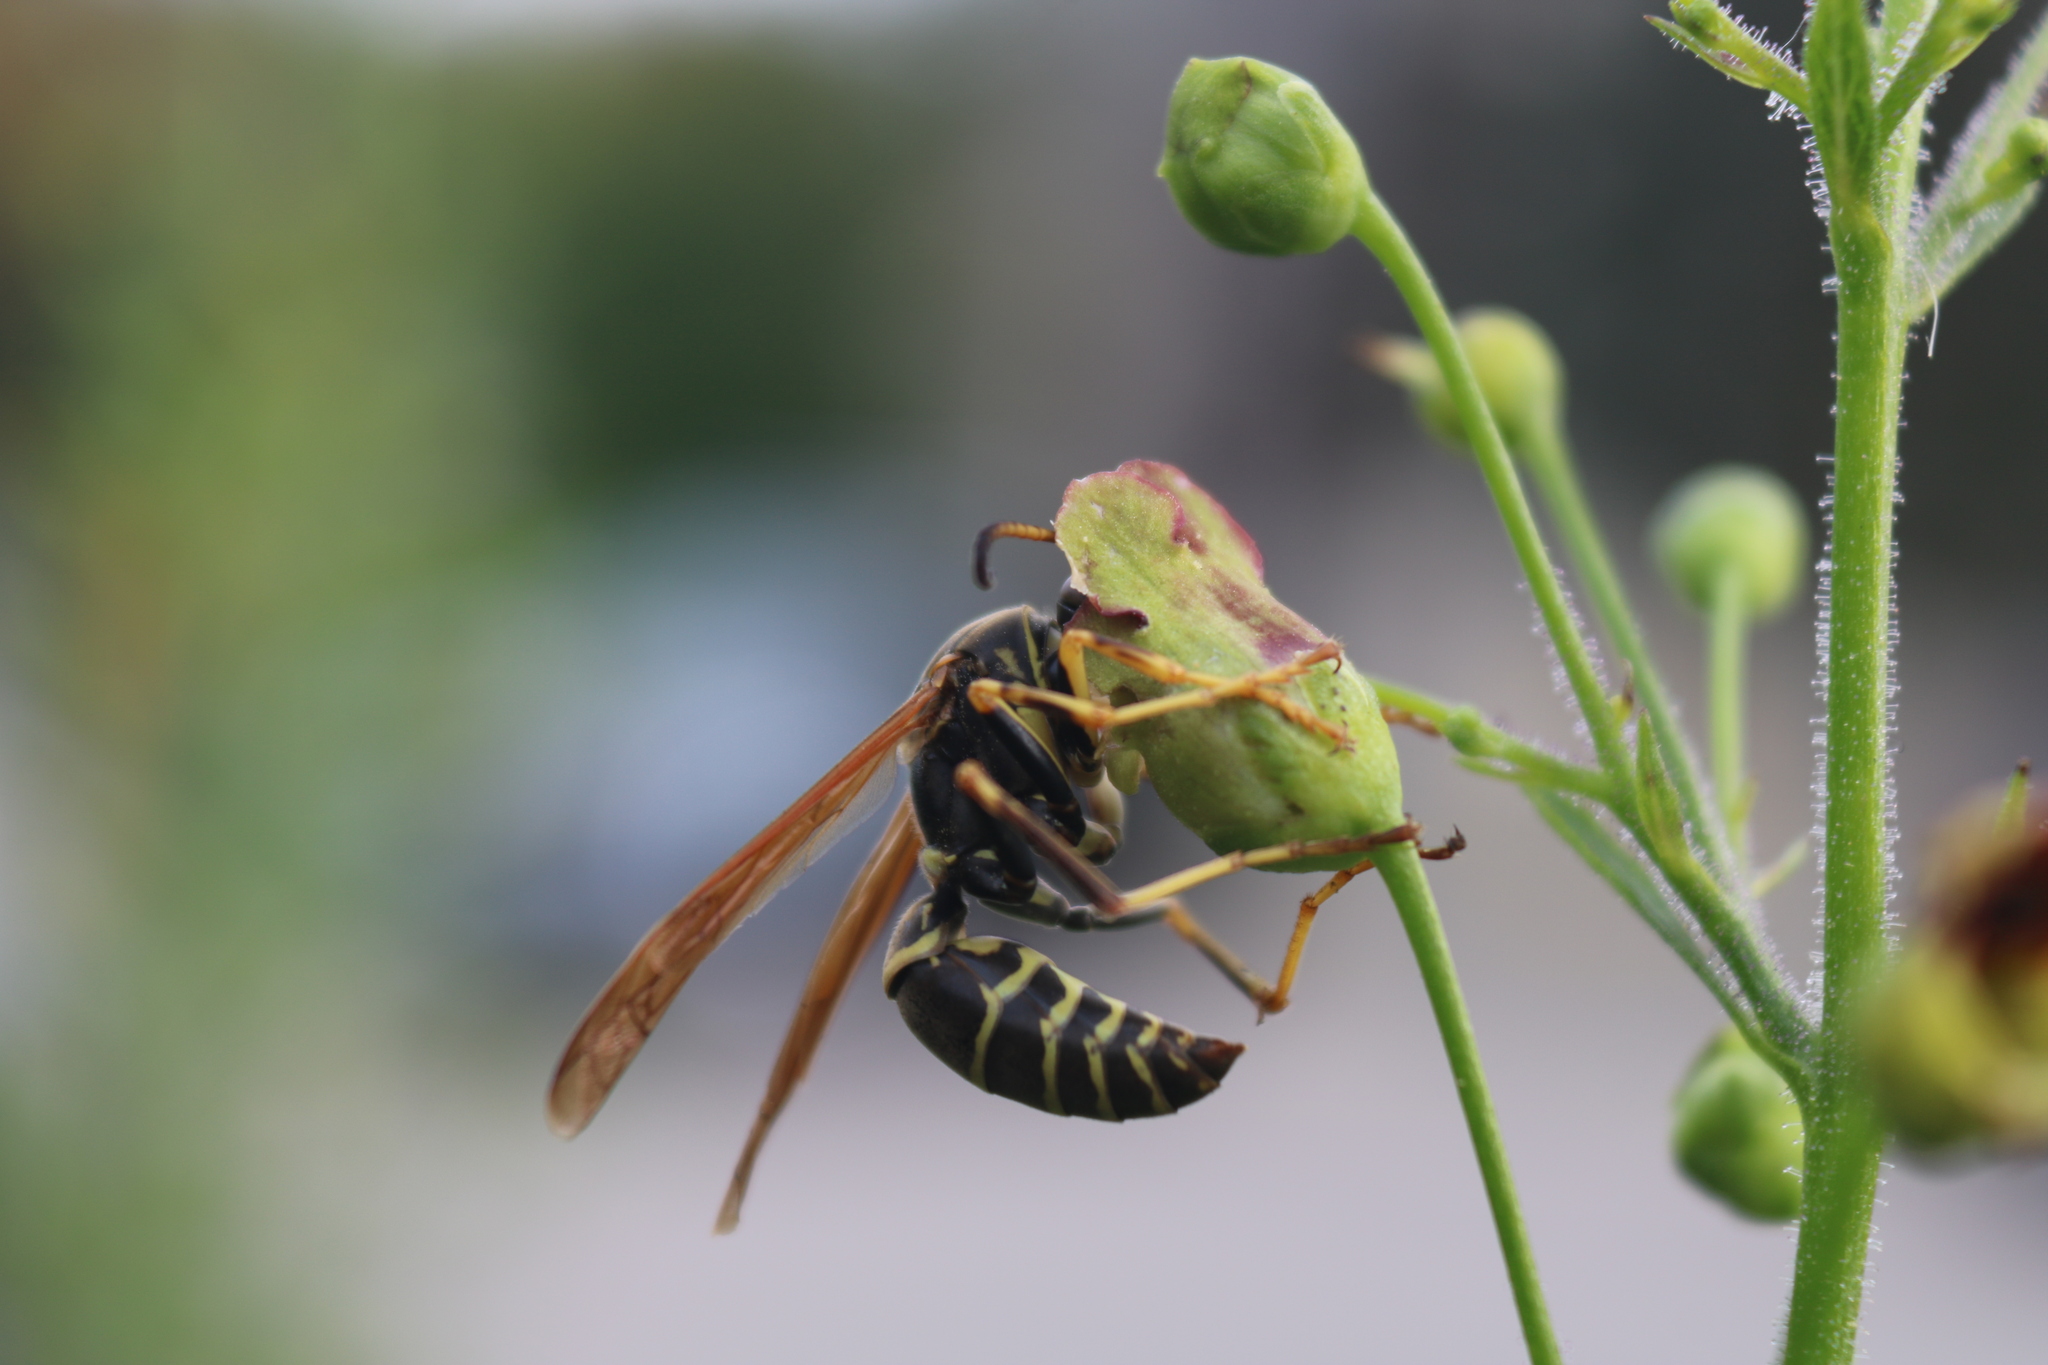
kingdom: Animalia
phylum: Arthropoda
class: Insecta
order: Hymenoptera
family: Eumenidae
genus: Polistes
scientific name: Polistes fuscatus
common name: Dark paper wasp
